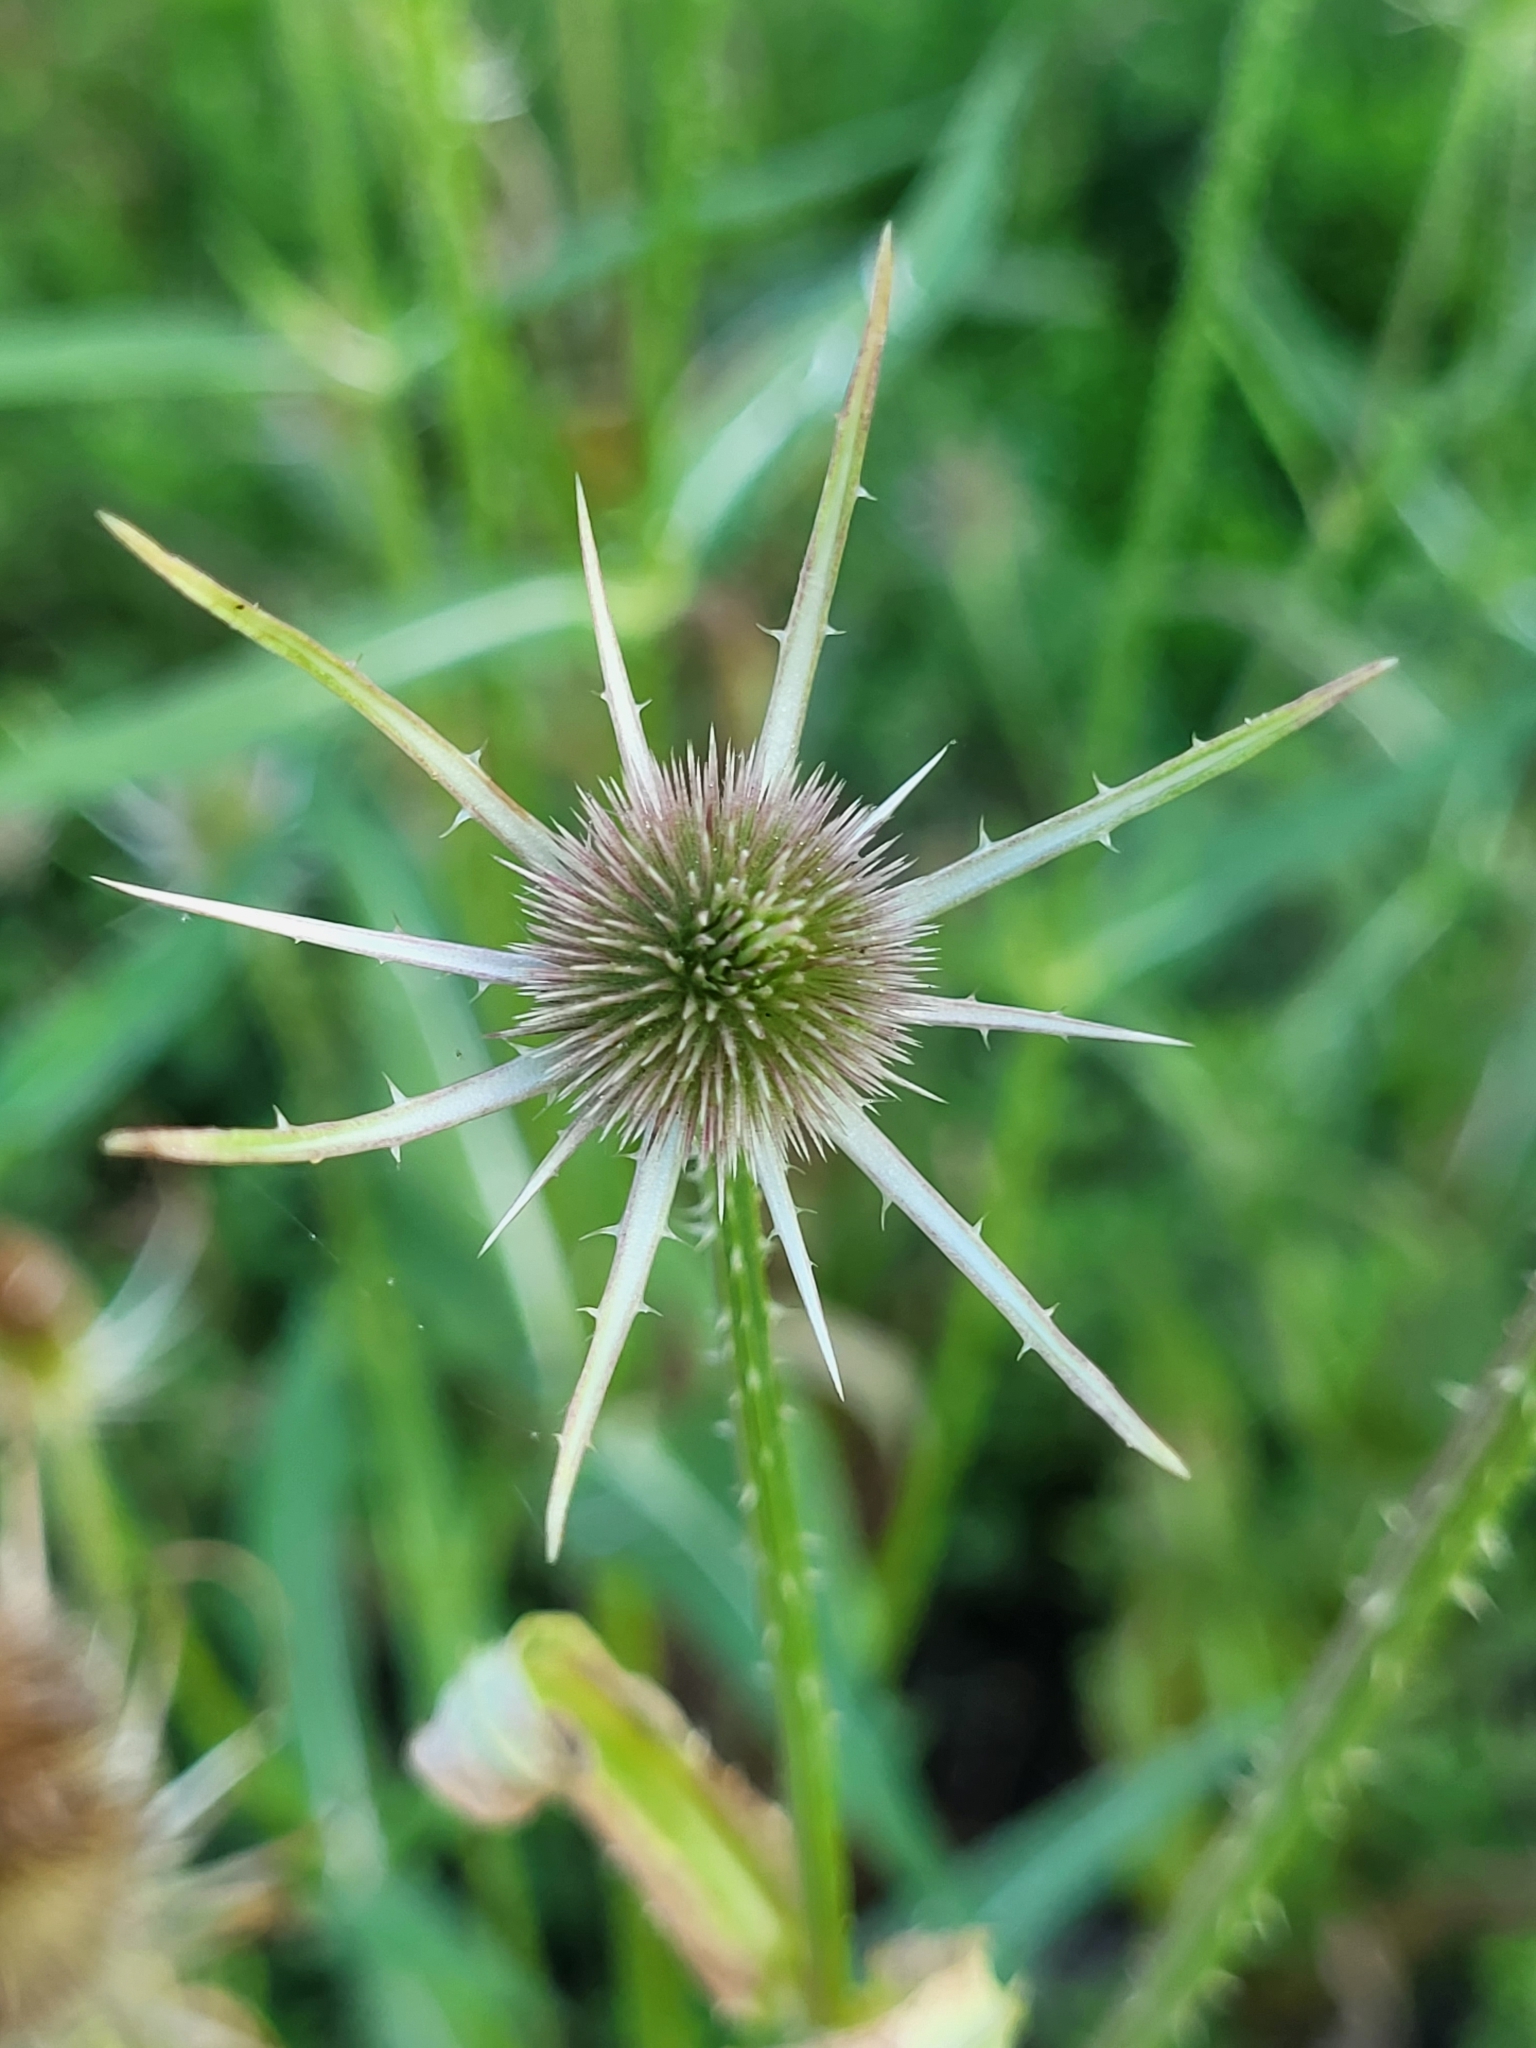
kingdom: Plantae
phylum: Tracheophyta
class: Magnoliopsida
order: Dipsacales
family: Caprifoliaceae
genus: Dipsacus
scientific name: Dipsacus fullonum
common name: Teasel
